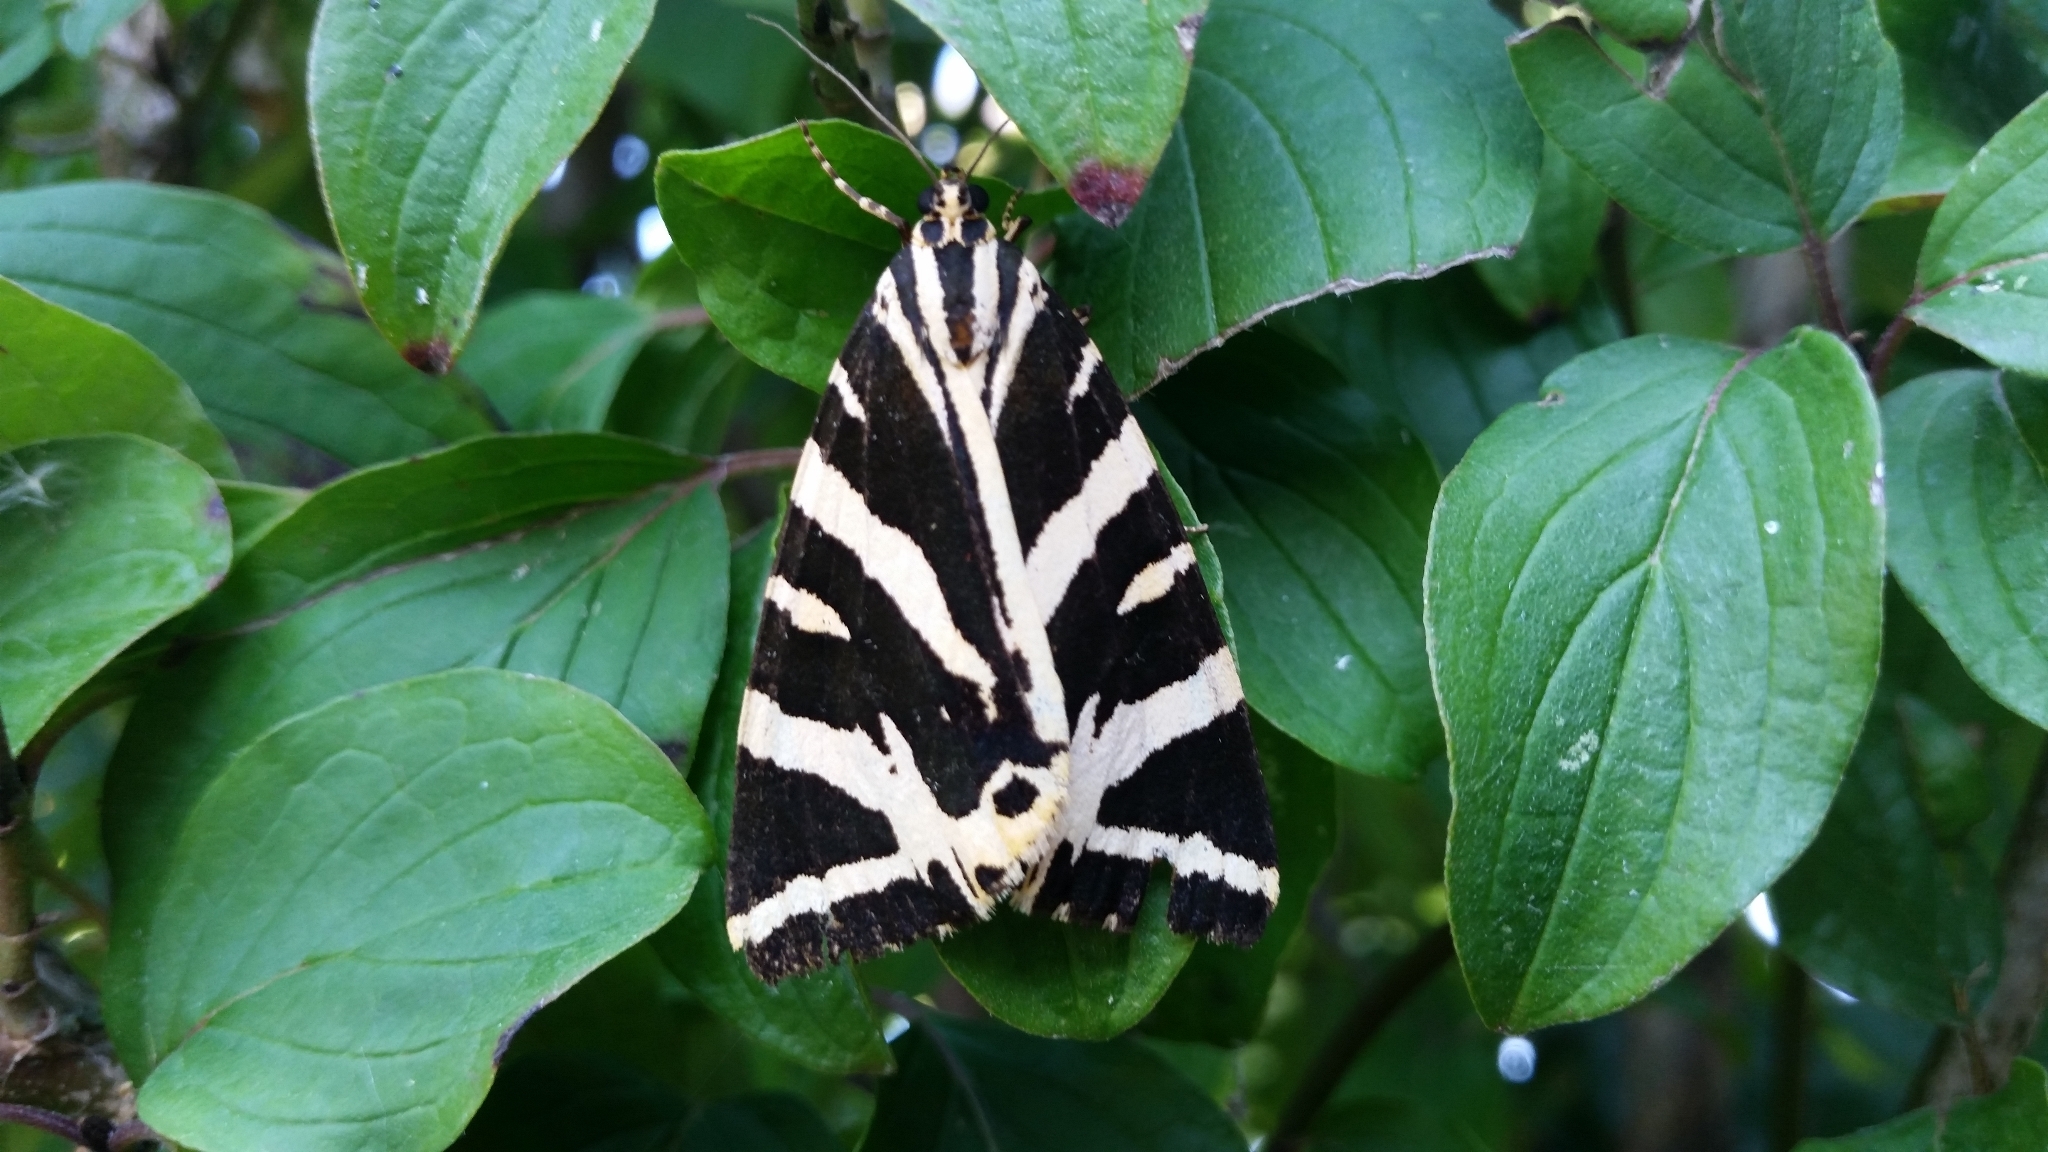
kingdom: Animalia
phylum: Arthropoda
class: Insecta
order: Lepidoptera
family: Erebidae
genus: Euplagia
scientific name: Euplagia quadripunctaria
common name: Jersey tiger
